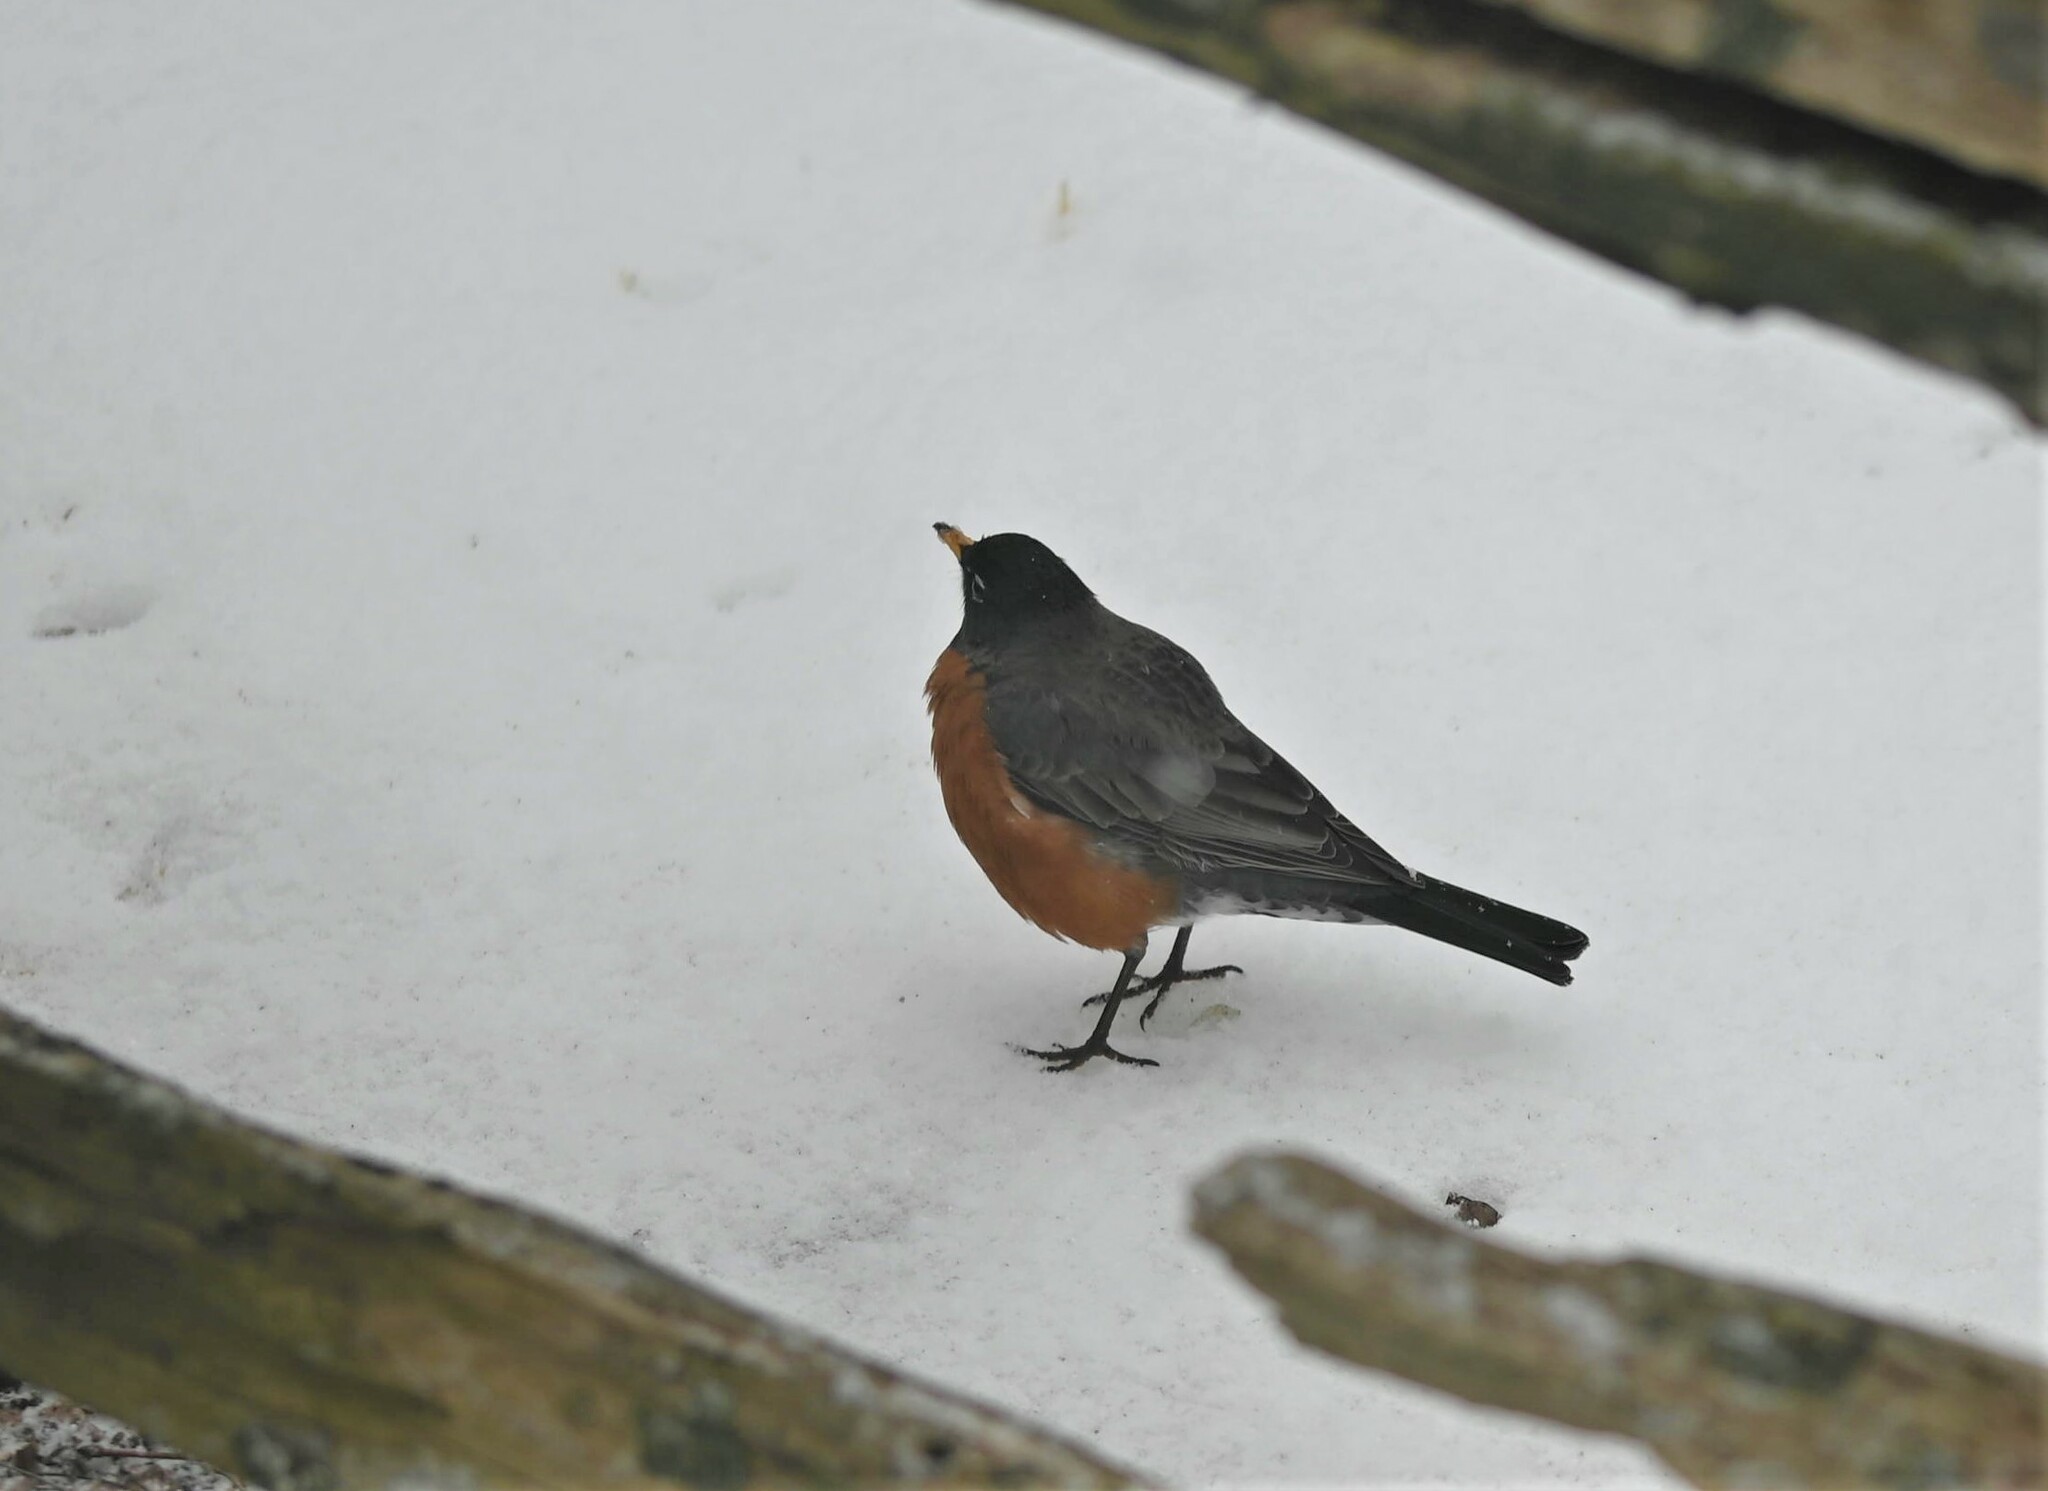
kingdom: Animalia
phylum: Chordata
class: Aves
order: Passeriformes
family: Turdidae
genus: Turdus
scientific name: Turdus migratorius
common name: American robin
